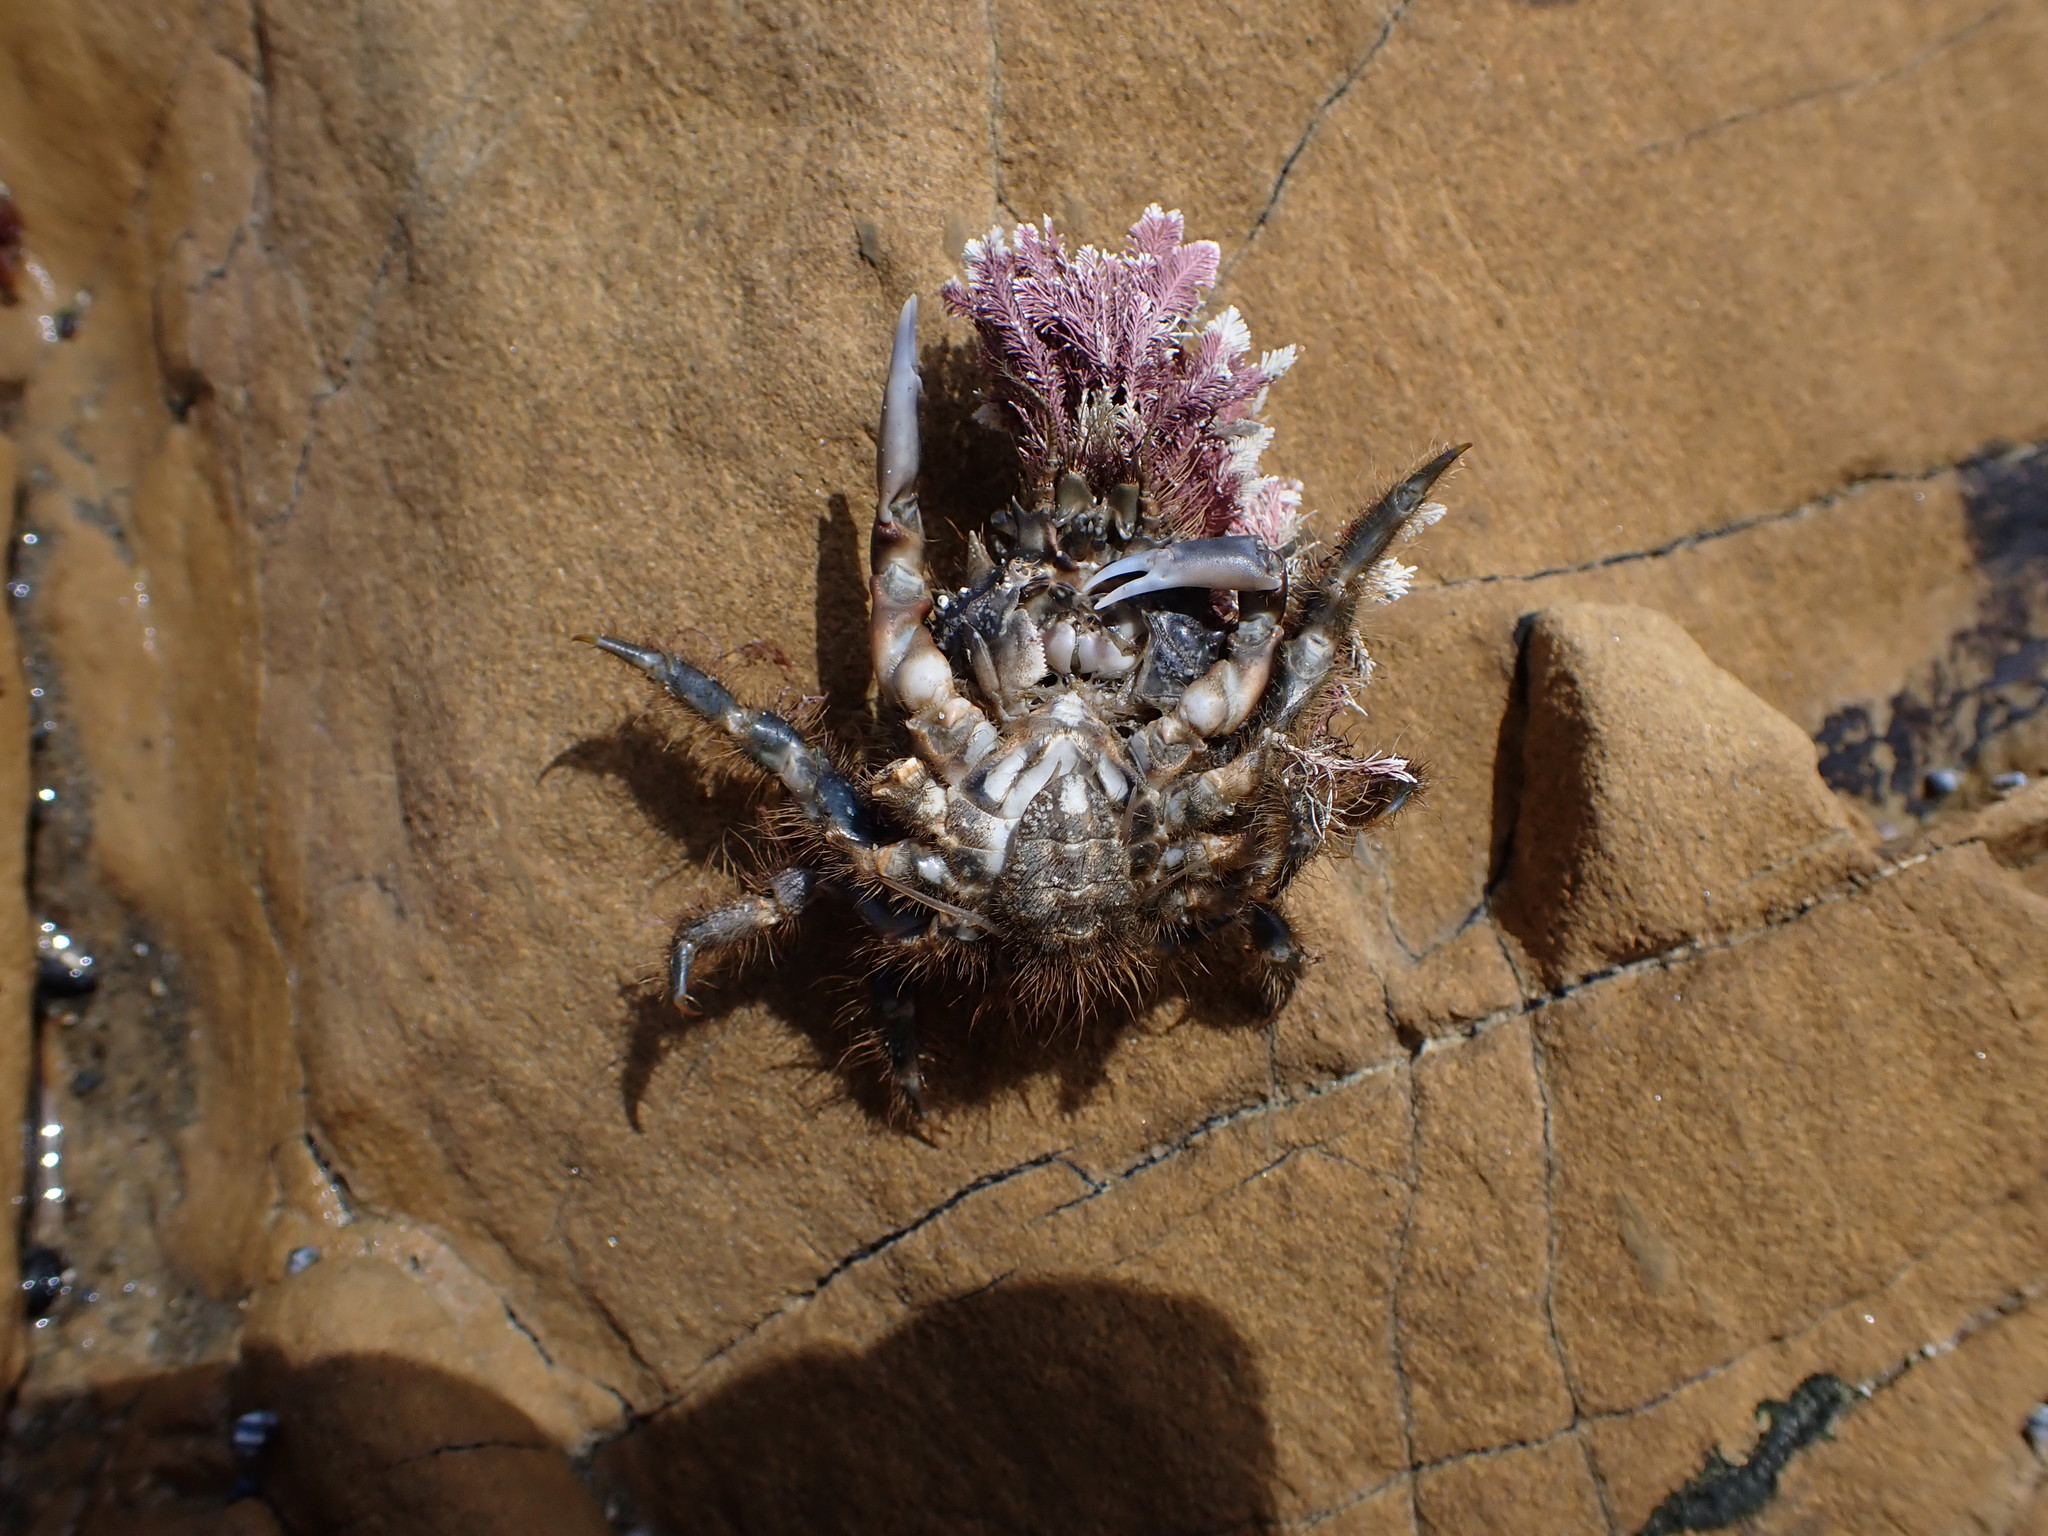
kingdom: Animalia
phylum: Arthropoda
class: Malacostraca
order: Decapoda
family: Majidae
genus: Notomithrax
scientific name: Notomithrax ursus
